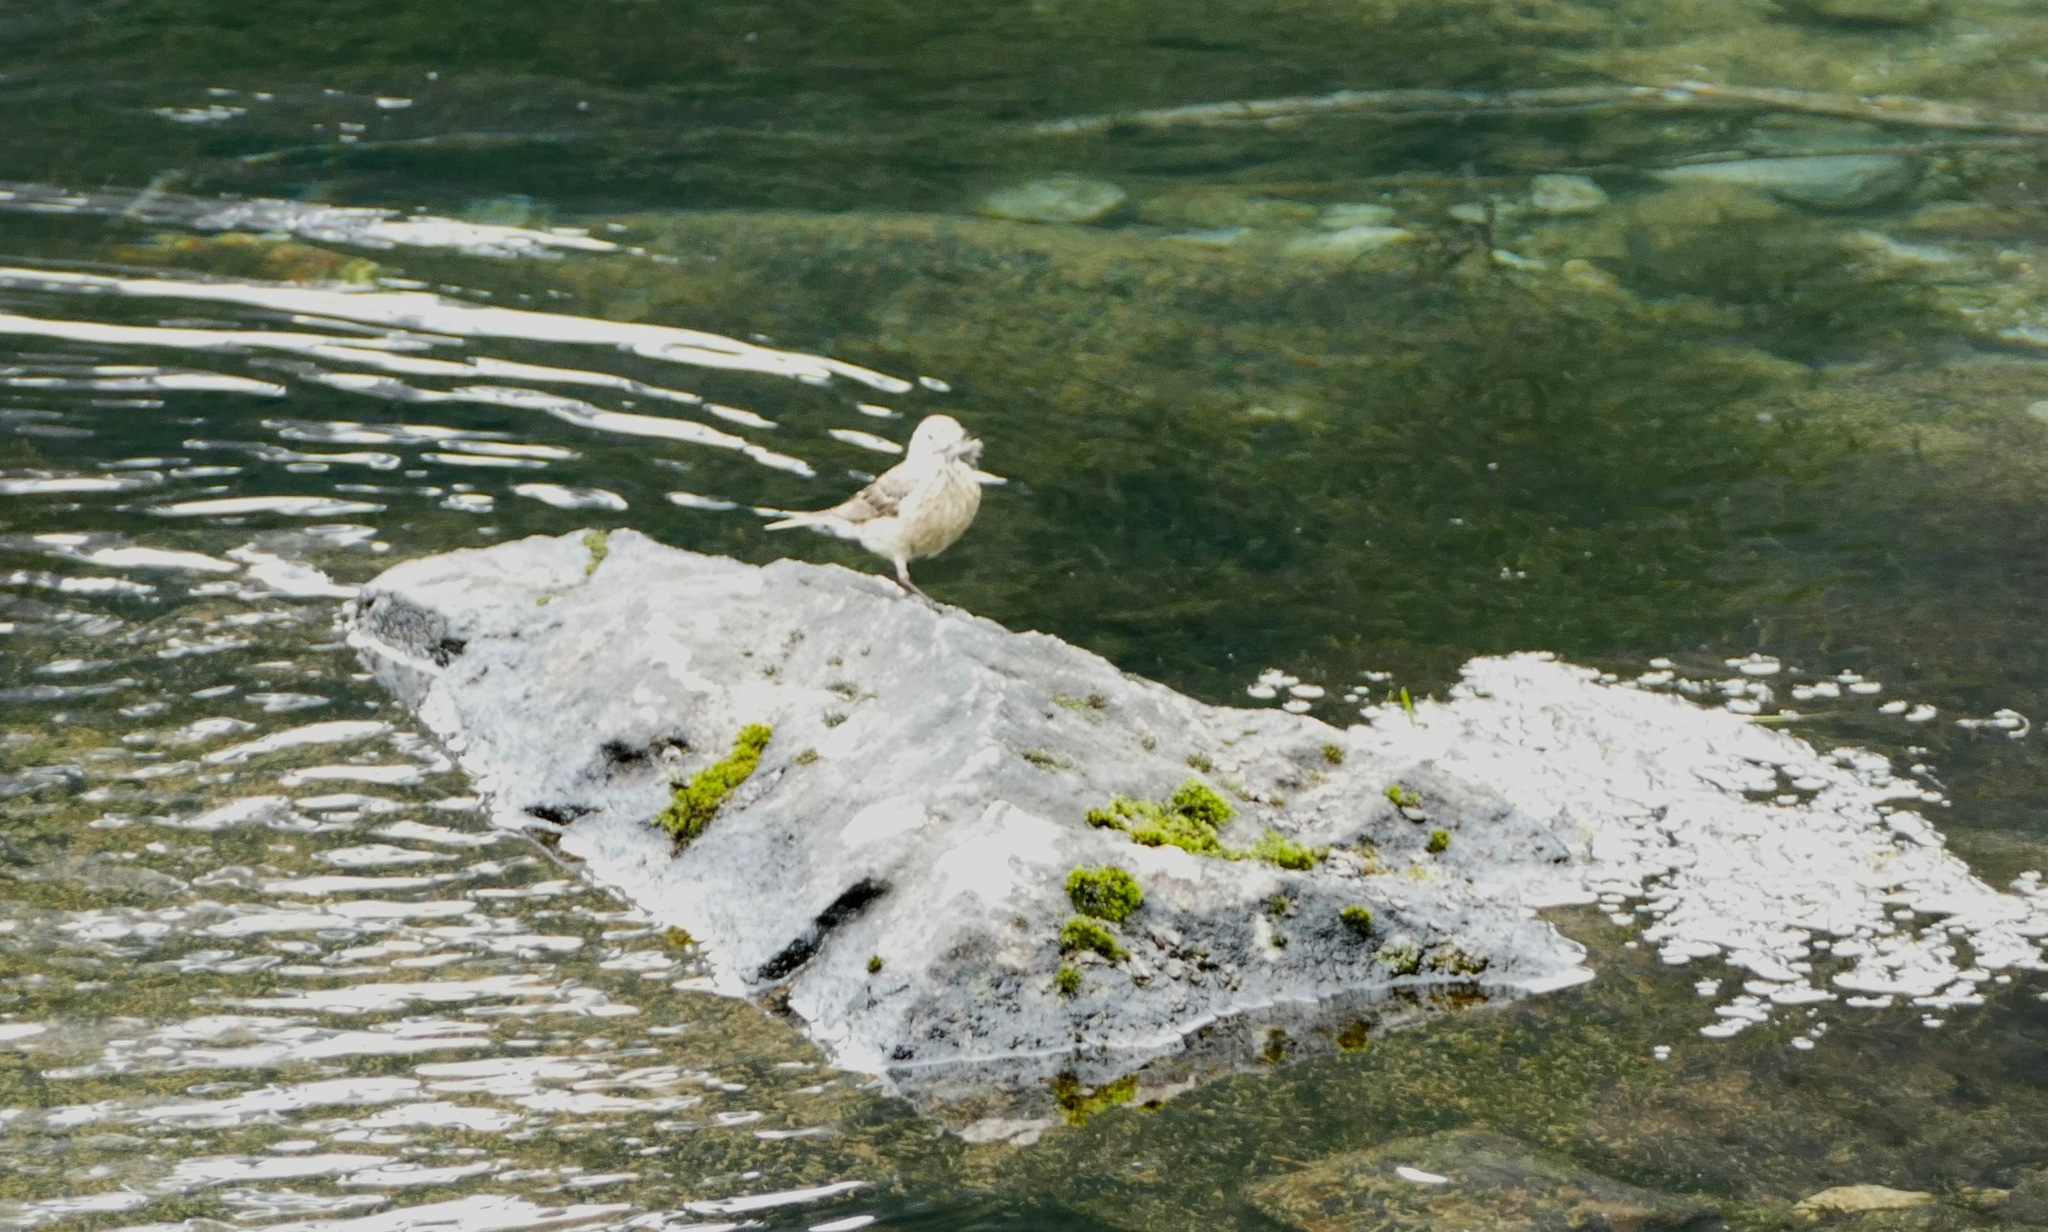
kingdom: Animalia
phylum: Chordata
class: Aves
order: Passeriformes
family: Motacillidae
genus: Anthus
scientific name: Anthus rubescens
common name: Buff-bellied pipit
